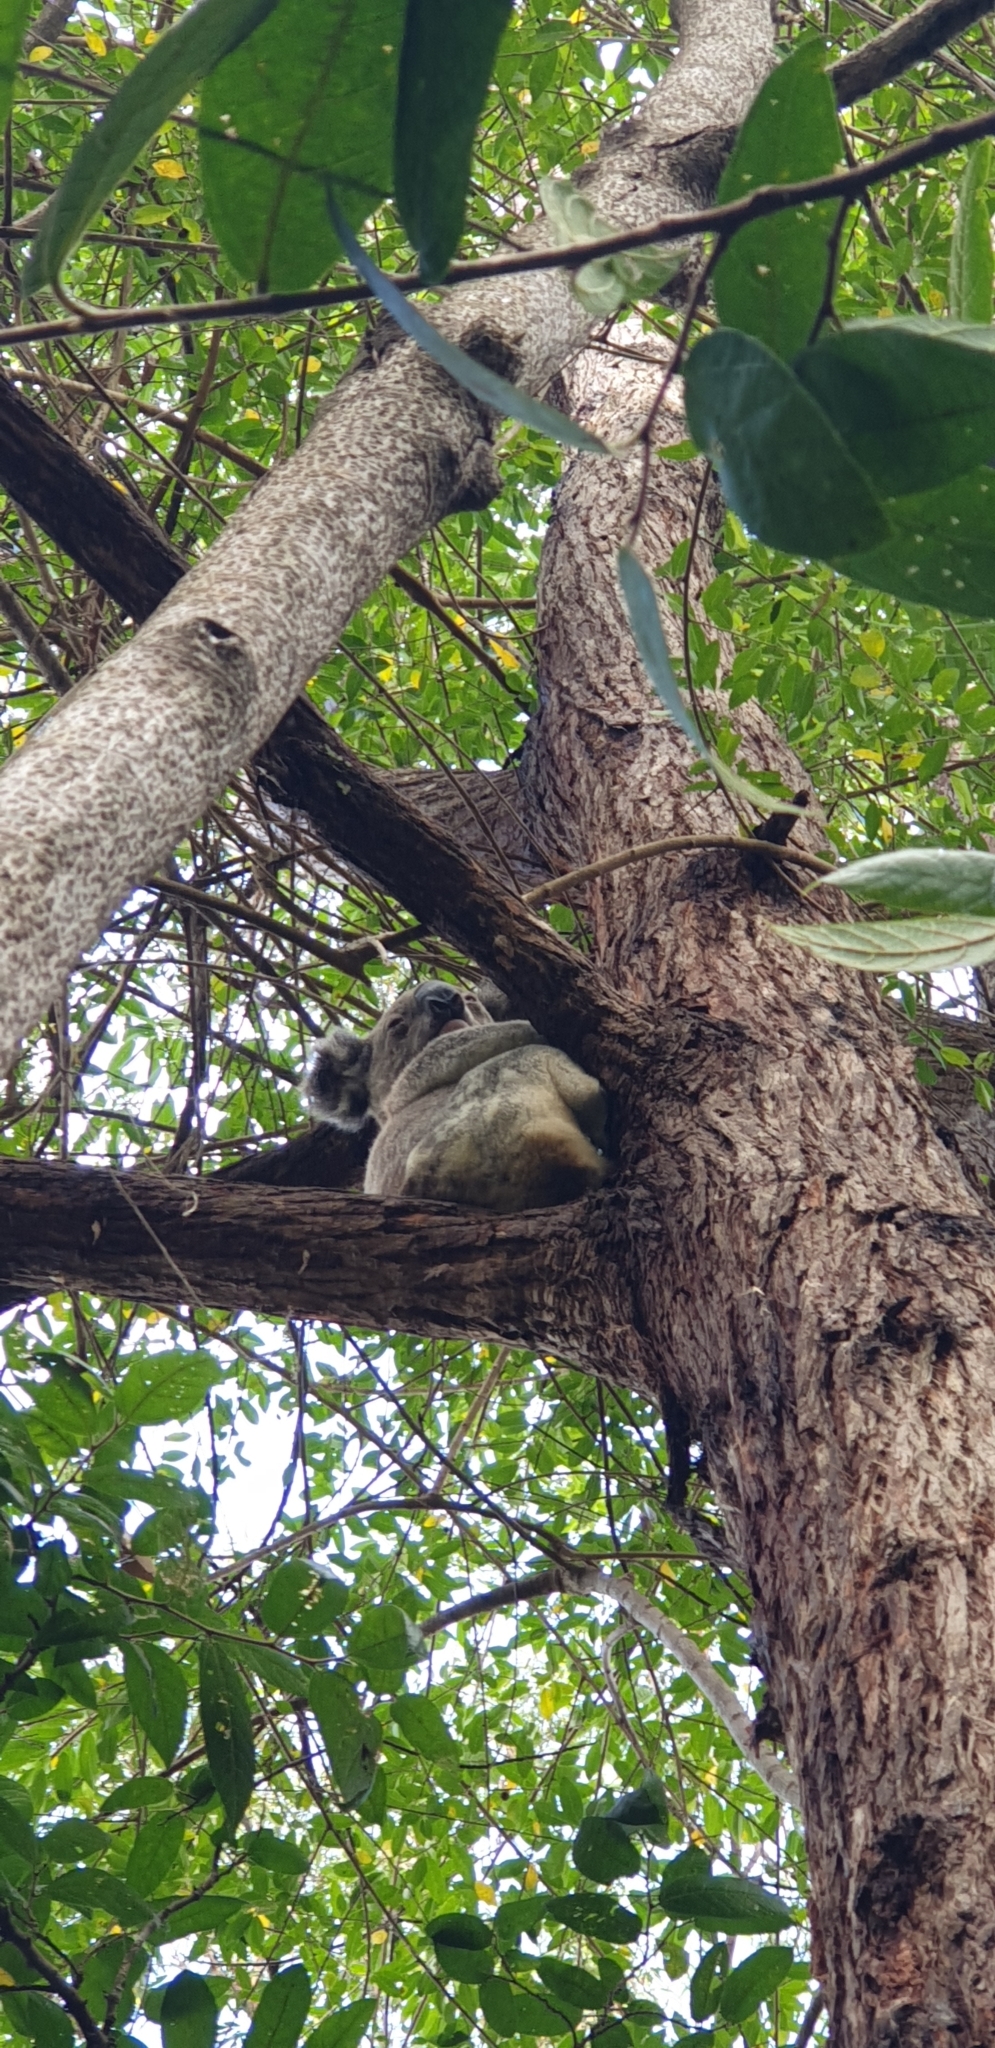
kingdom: Animalia
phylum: Chordata
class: Mammalia
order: Diprotodontia
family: Phascolarctidae
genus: Phascolarctos
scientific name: Phascolarctos cinereus
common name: Koala
